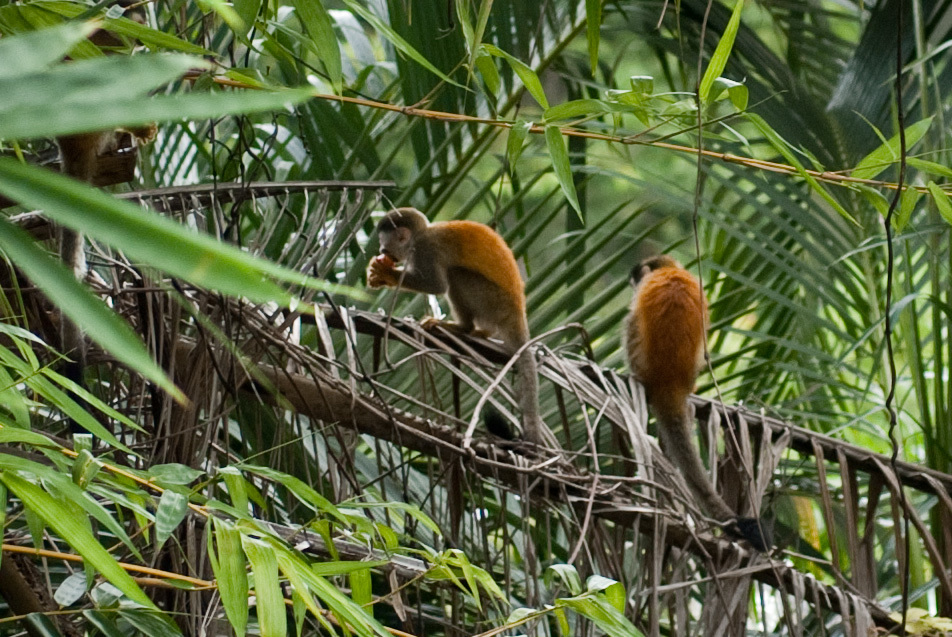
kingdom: Animalia
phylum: Chordata
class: Mammalia
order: Primates
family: Cebidae
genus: Saimiri
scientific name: Saimiri oerstedii
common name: Central american squirrel monkey
